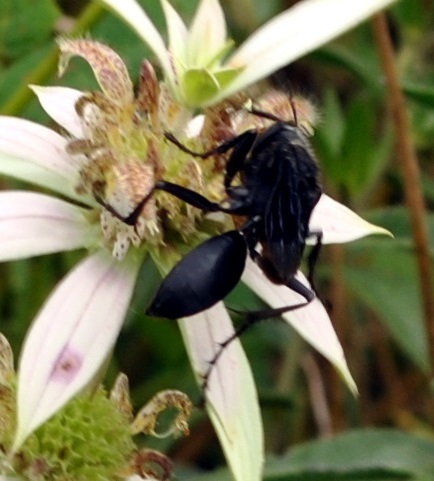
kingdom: Animalia
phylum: Arthropoda
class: Insecta
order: Hymenoptera
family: Sphecidae
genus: Sphex
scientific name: Sphex pensylvanicus
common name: Great black digger wasp
